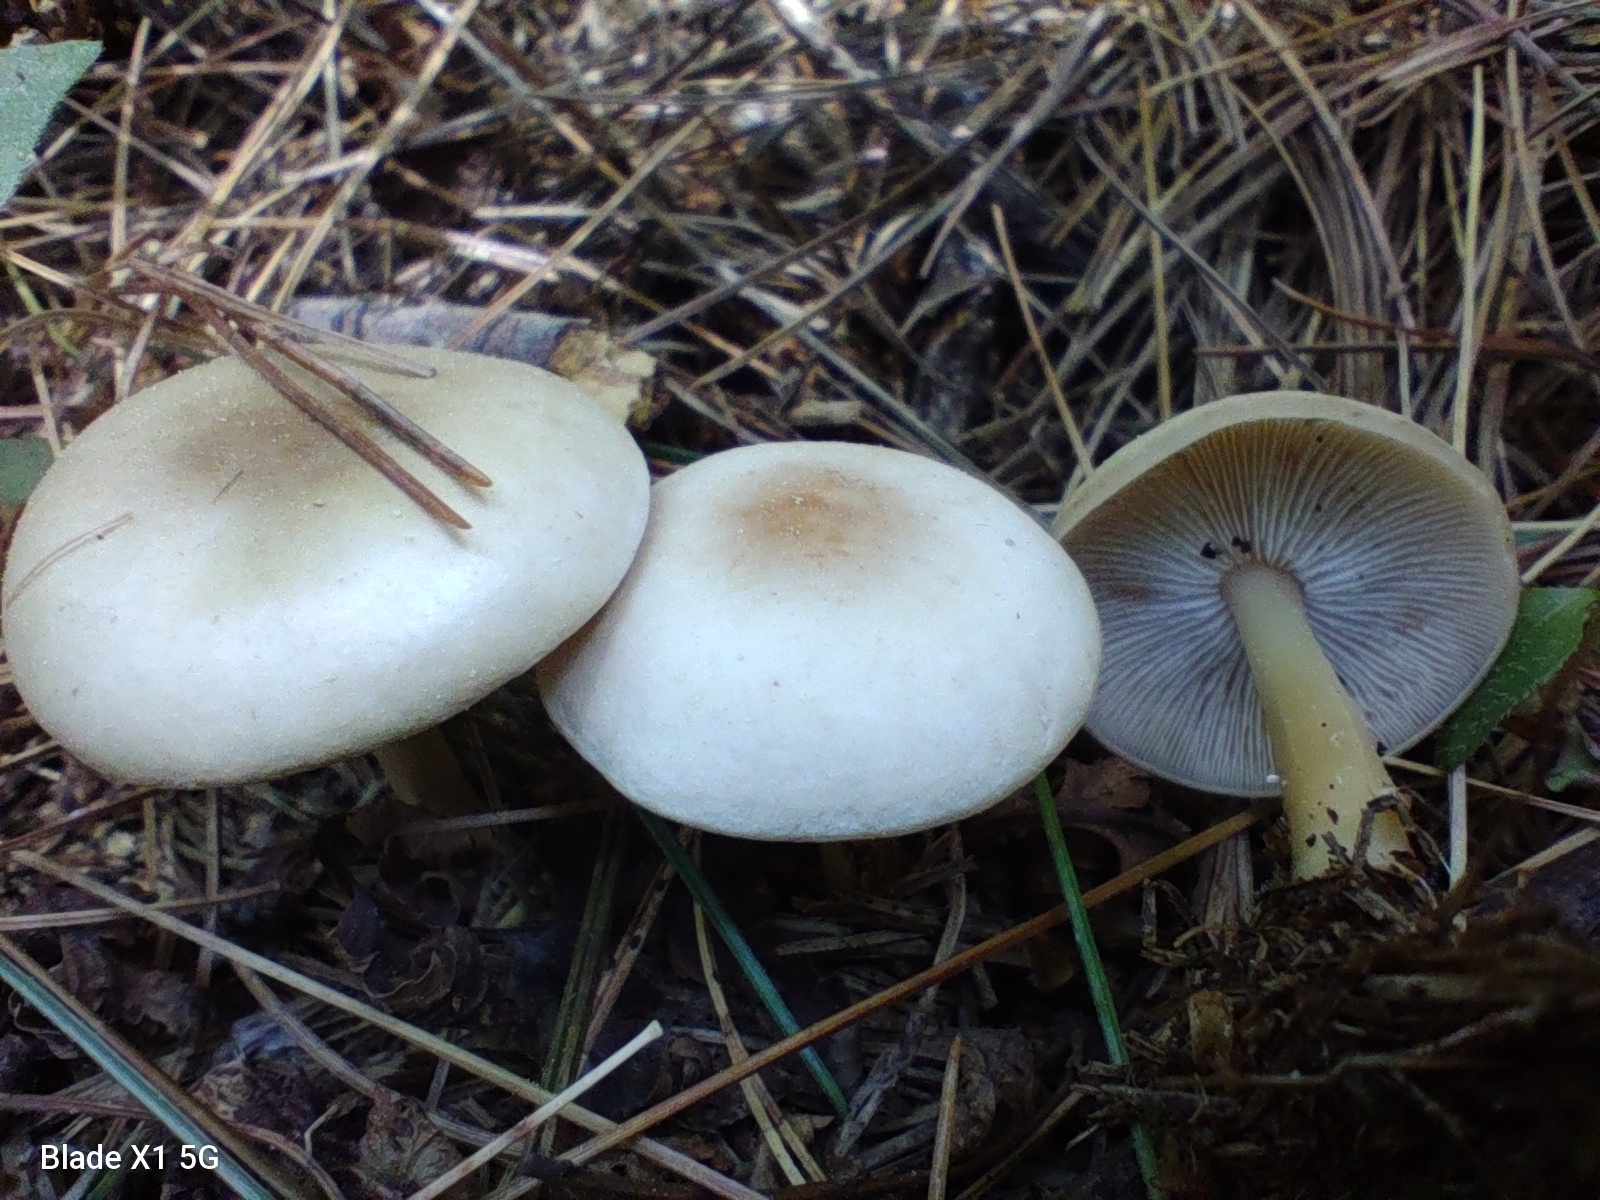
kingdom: Fungi
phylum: Basidiomycota
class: Agaricomycetes
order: Agaricales
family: Omphalotaceae
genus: Rhodocollybia
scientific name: Rhodocollybia butyracea
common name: Butter cap
